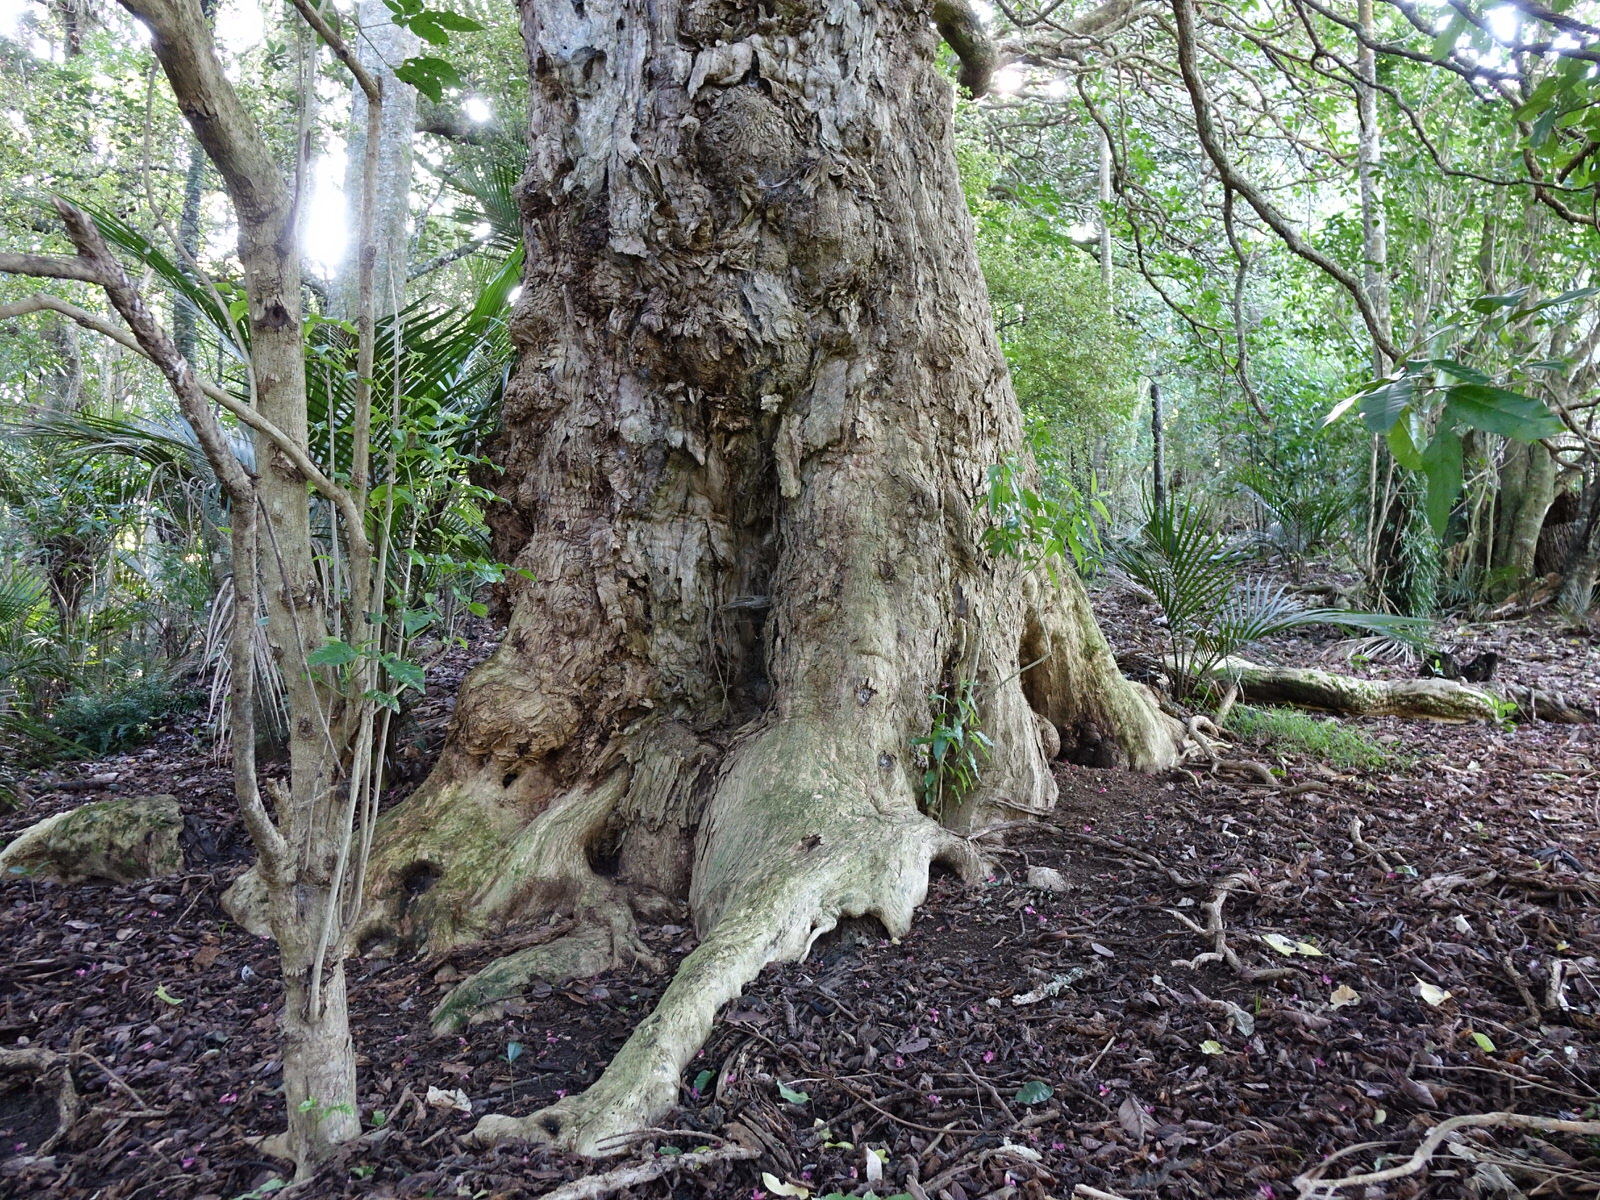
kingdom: Plantae
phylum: Tracheophyta
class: Magnoliopsida
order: Lamiales
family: Lamiaceae
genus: Vitex
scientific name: Vitex lucens
